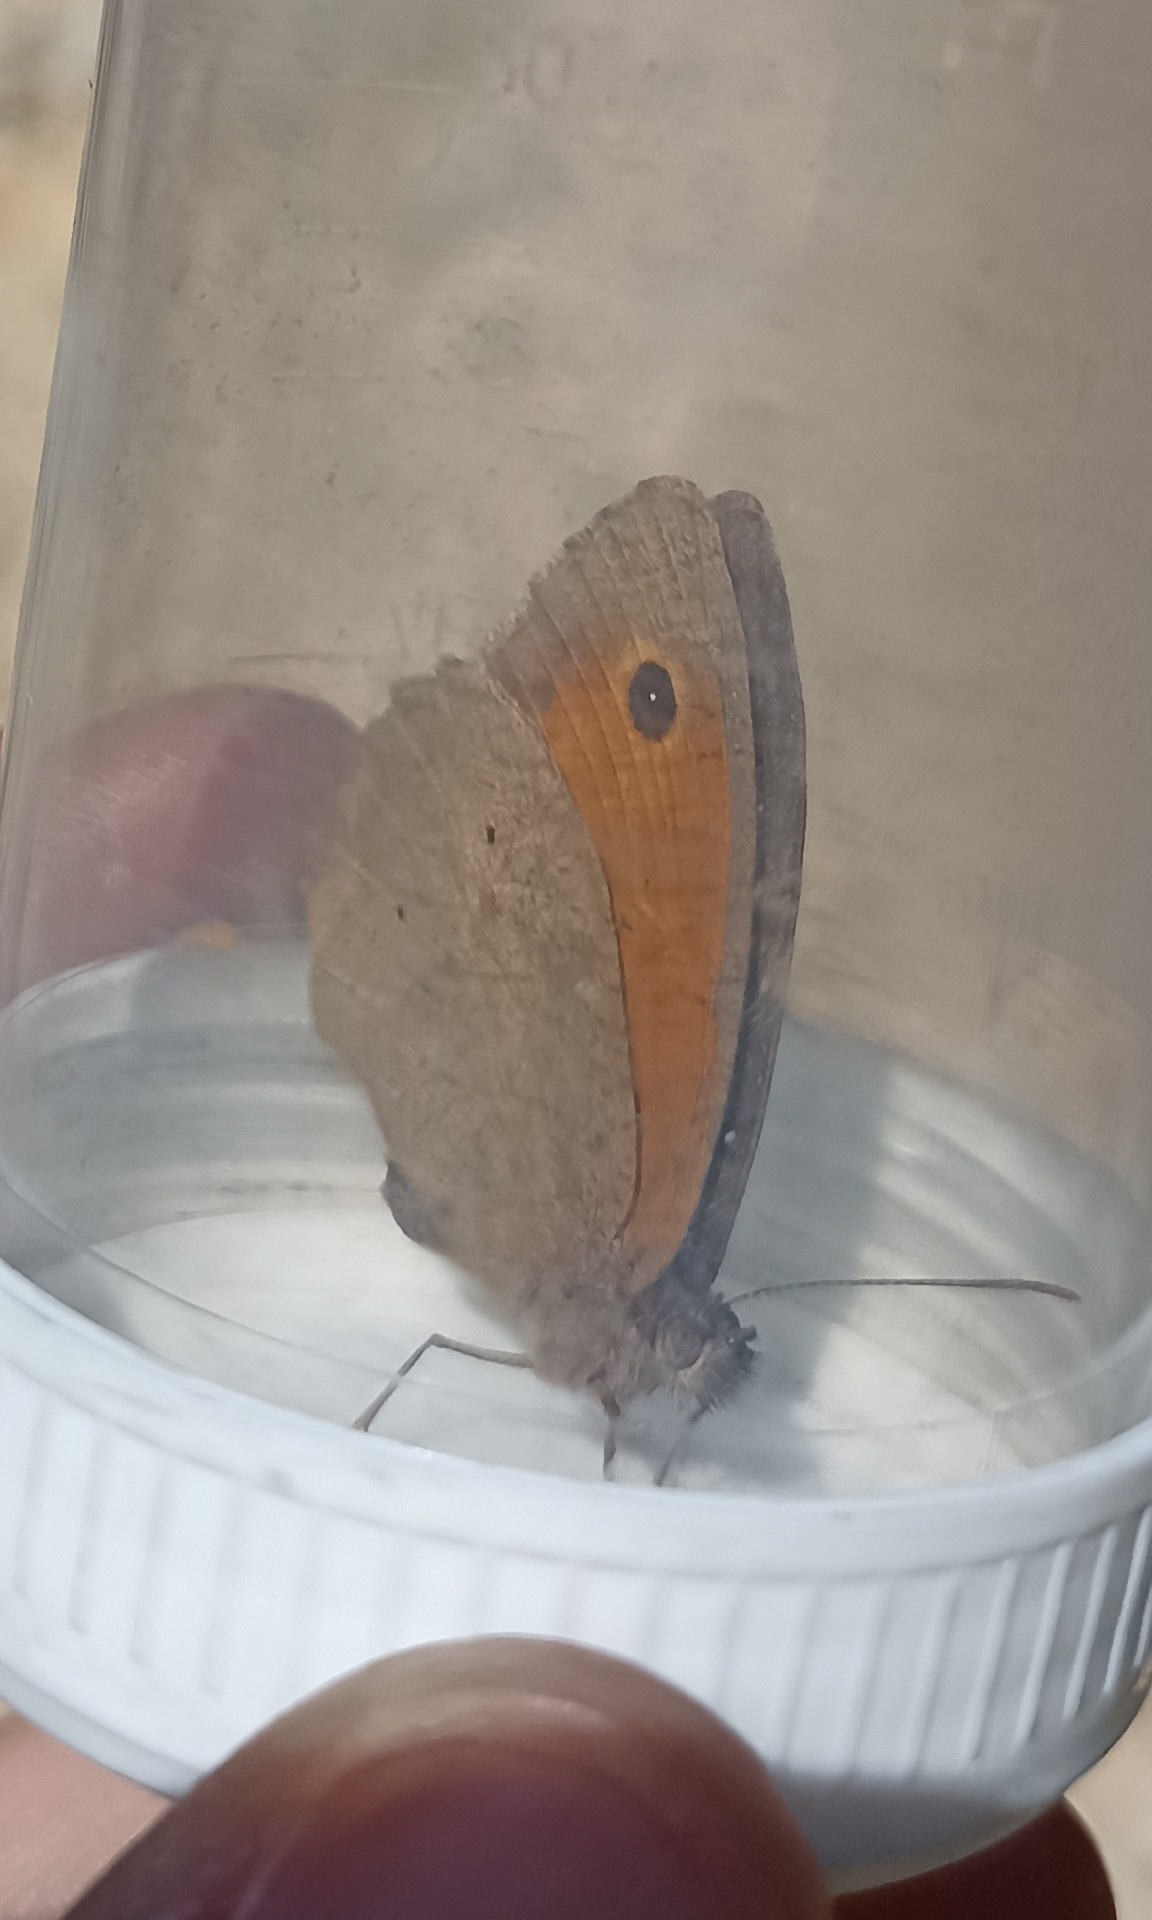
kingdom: Animalia
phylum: Arthropoda
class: Insecta
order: Lepidoptera
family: Nymphalidae
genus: Maniola
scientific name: Maniola jurtina
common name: Meadow brown
